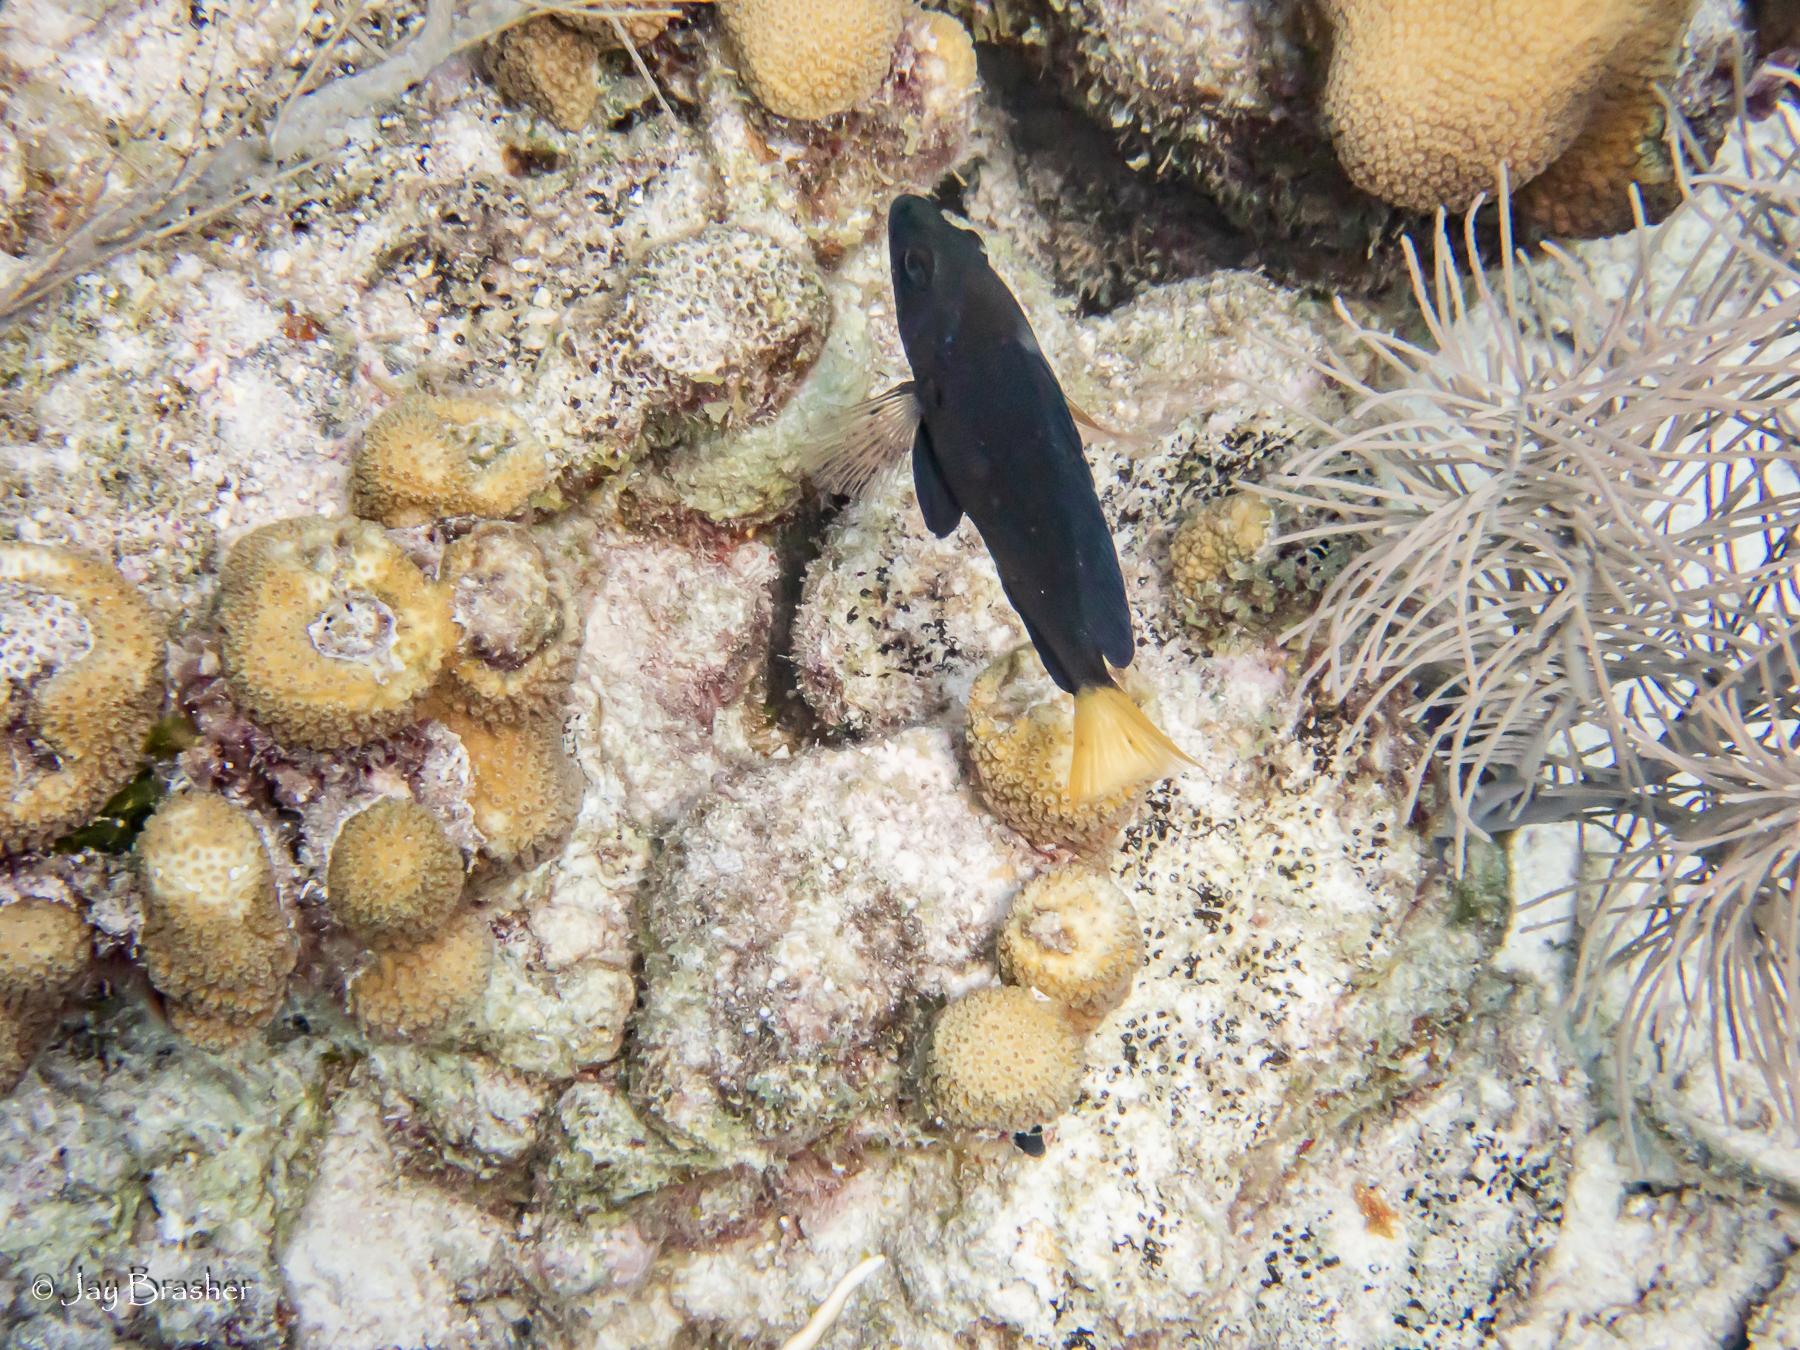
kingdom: Animalia
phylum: Chordata
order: Perciformes
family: Serranidae
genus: Hypoplectrus
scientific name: Hypoplectrus chlorurus
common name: Yellowtail hamlet
